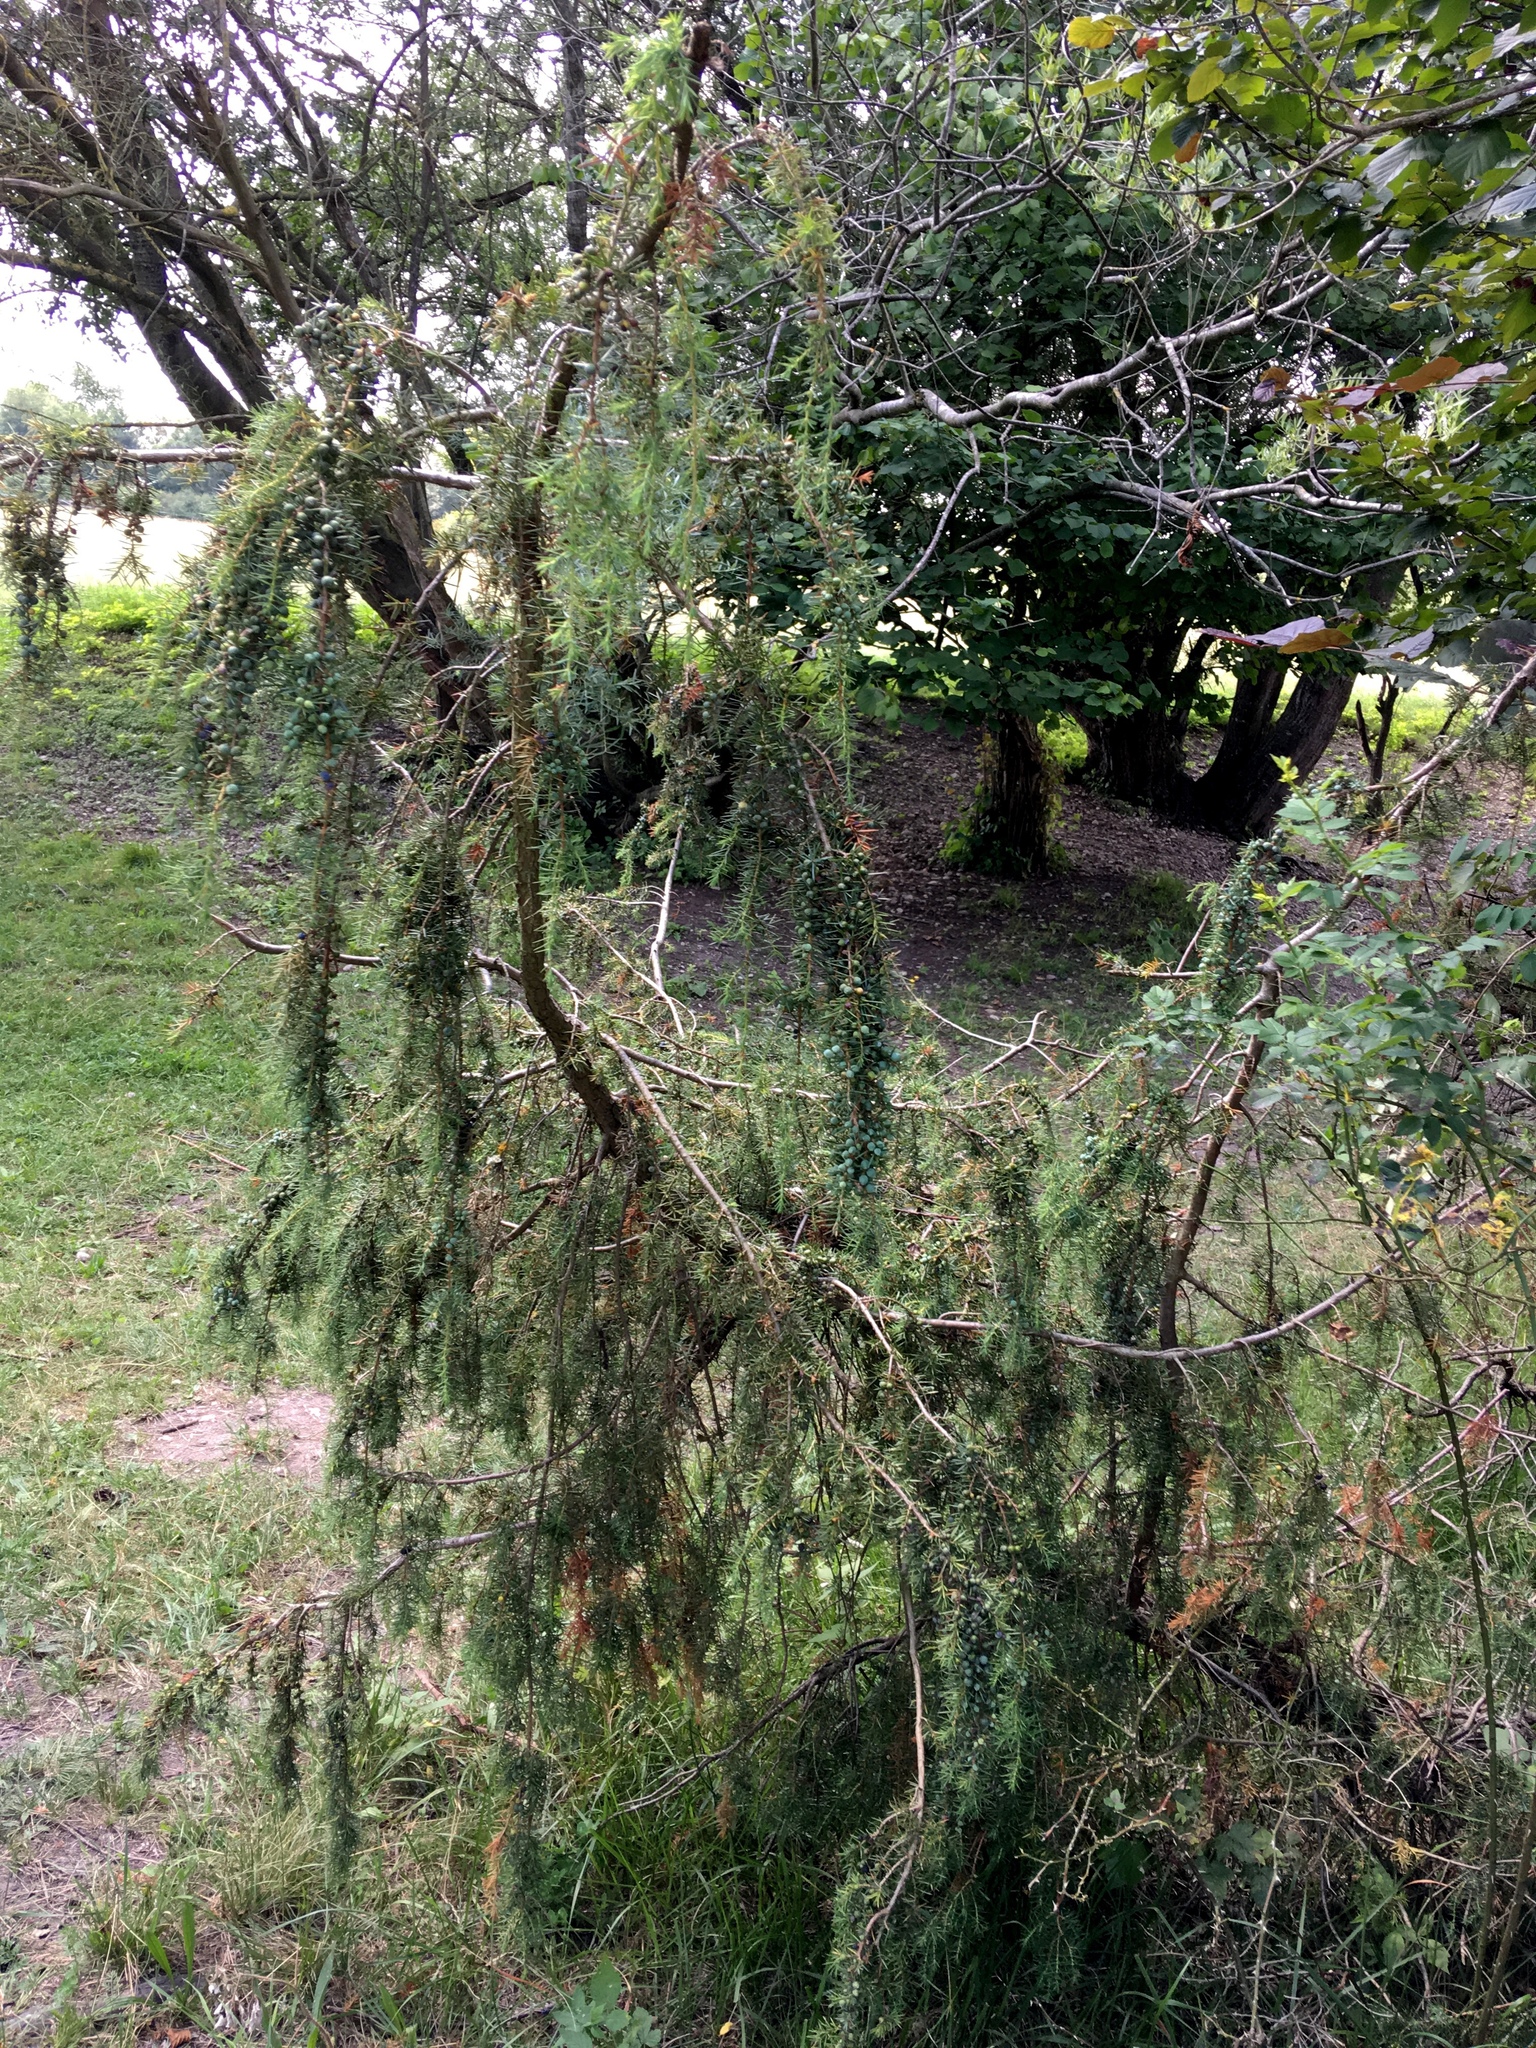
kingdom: Plantae
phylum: Tracheophyta
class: Pinopsida
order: Pinales
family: Cupressaceae
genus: Juniperus
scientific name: Juniperus communis
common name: Common juniper
